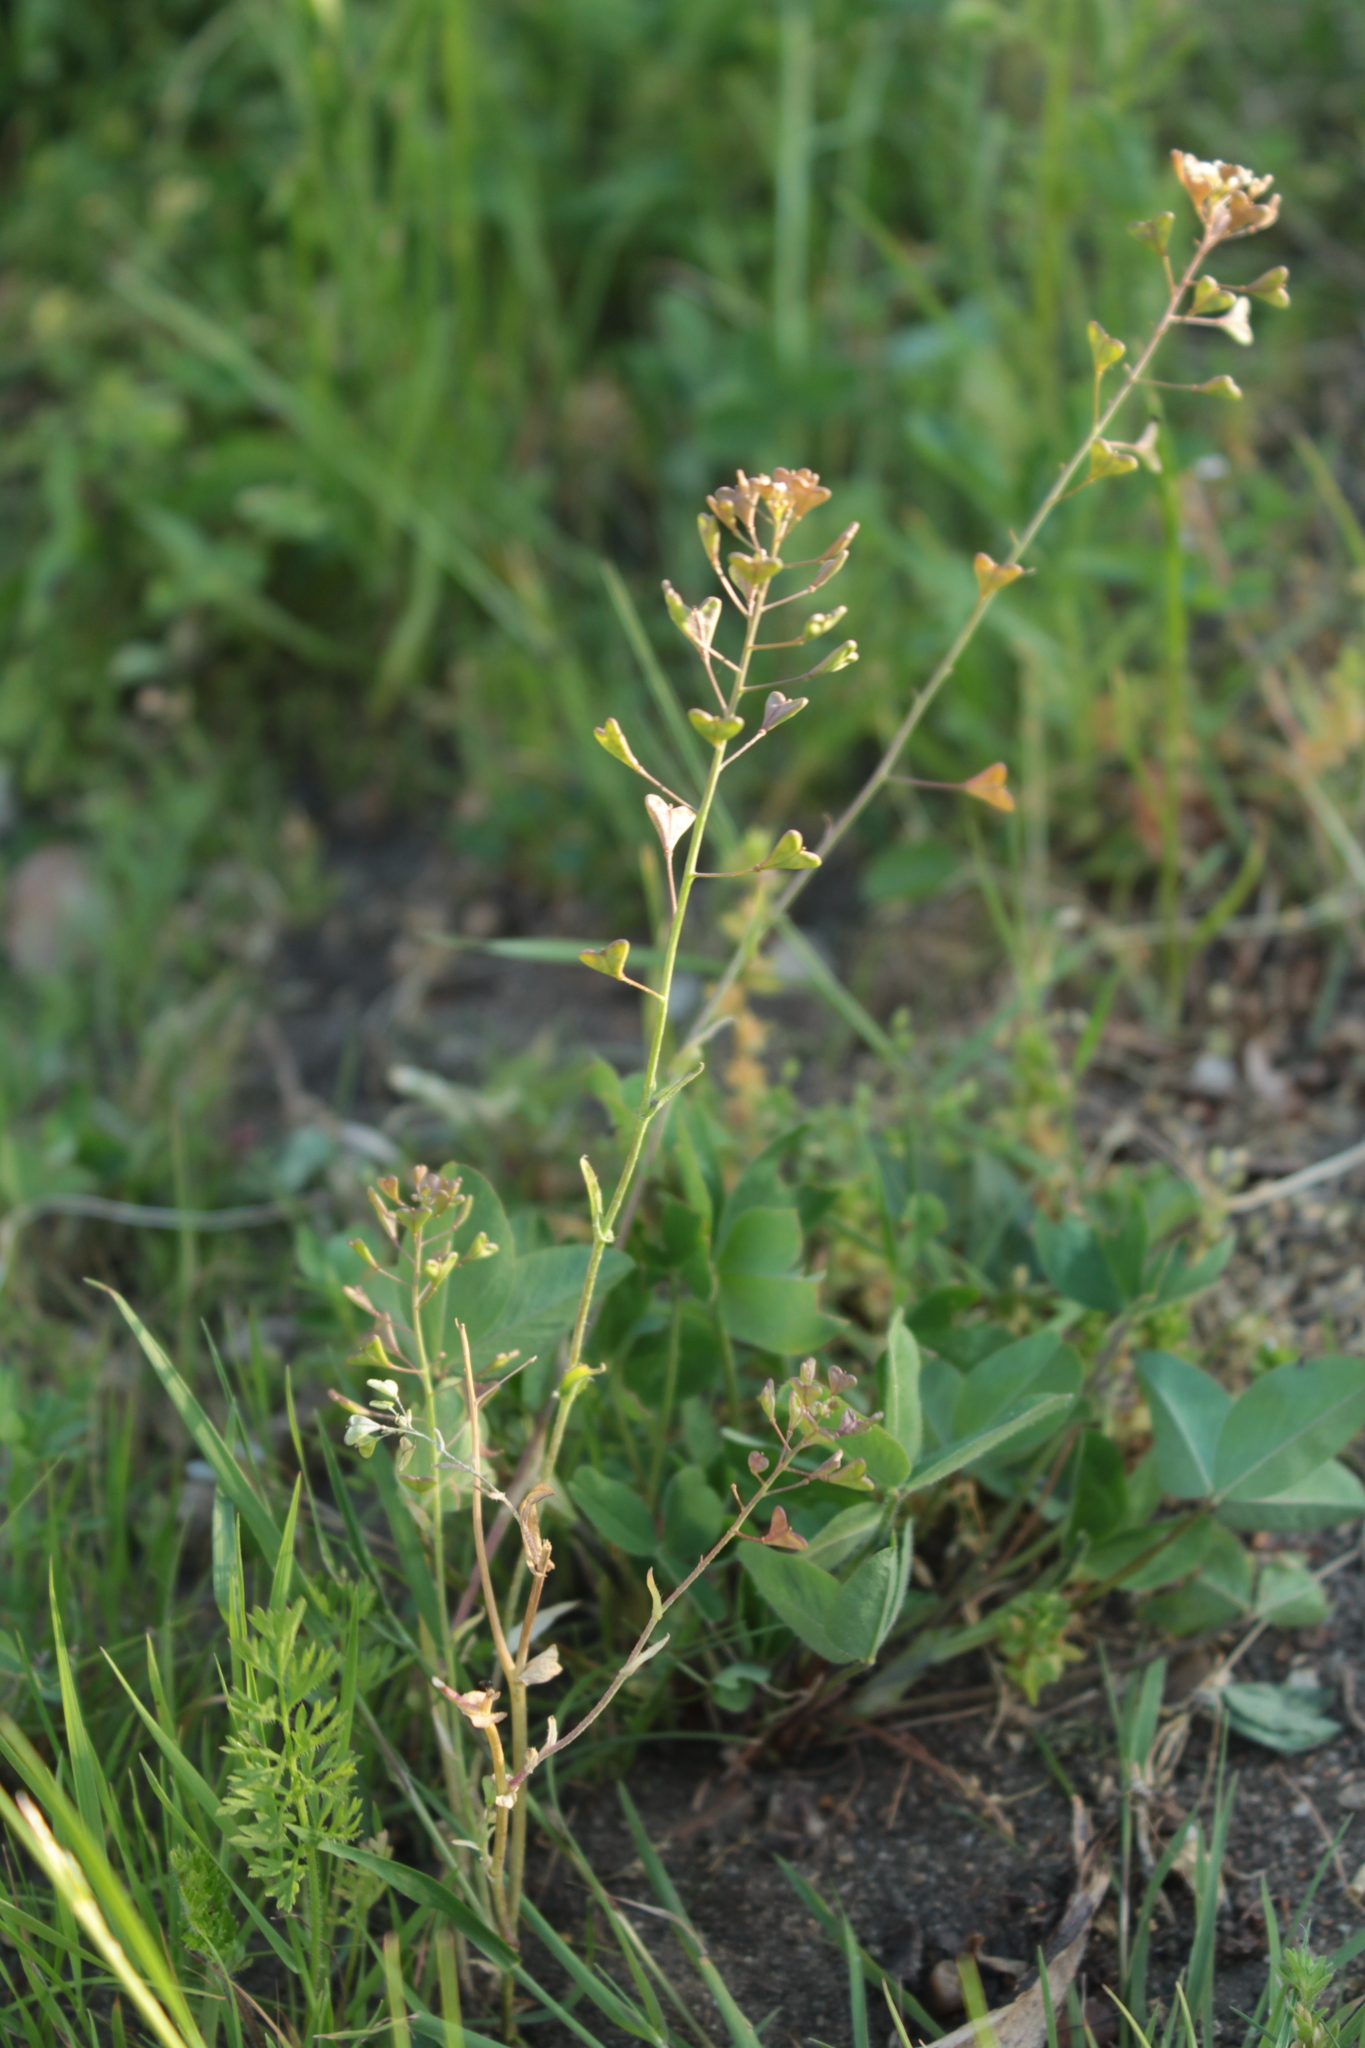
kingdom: Plantae
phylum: Tracheophyta
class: Magnoliopsida
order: Brassicales
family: Brassicaceae
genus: Capsella
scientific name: Capsella bursa-pastoris
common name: Shepherd's purse
